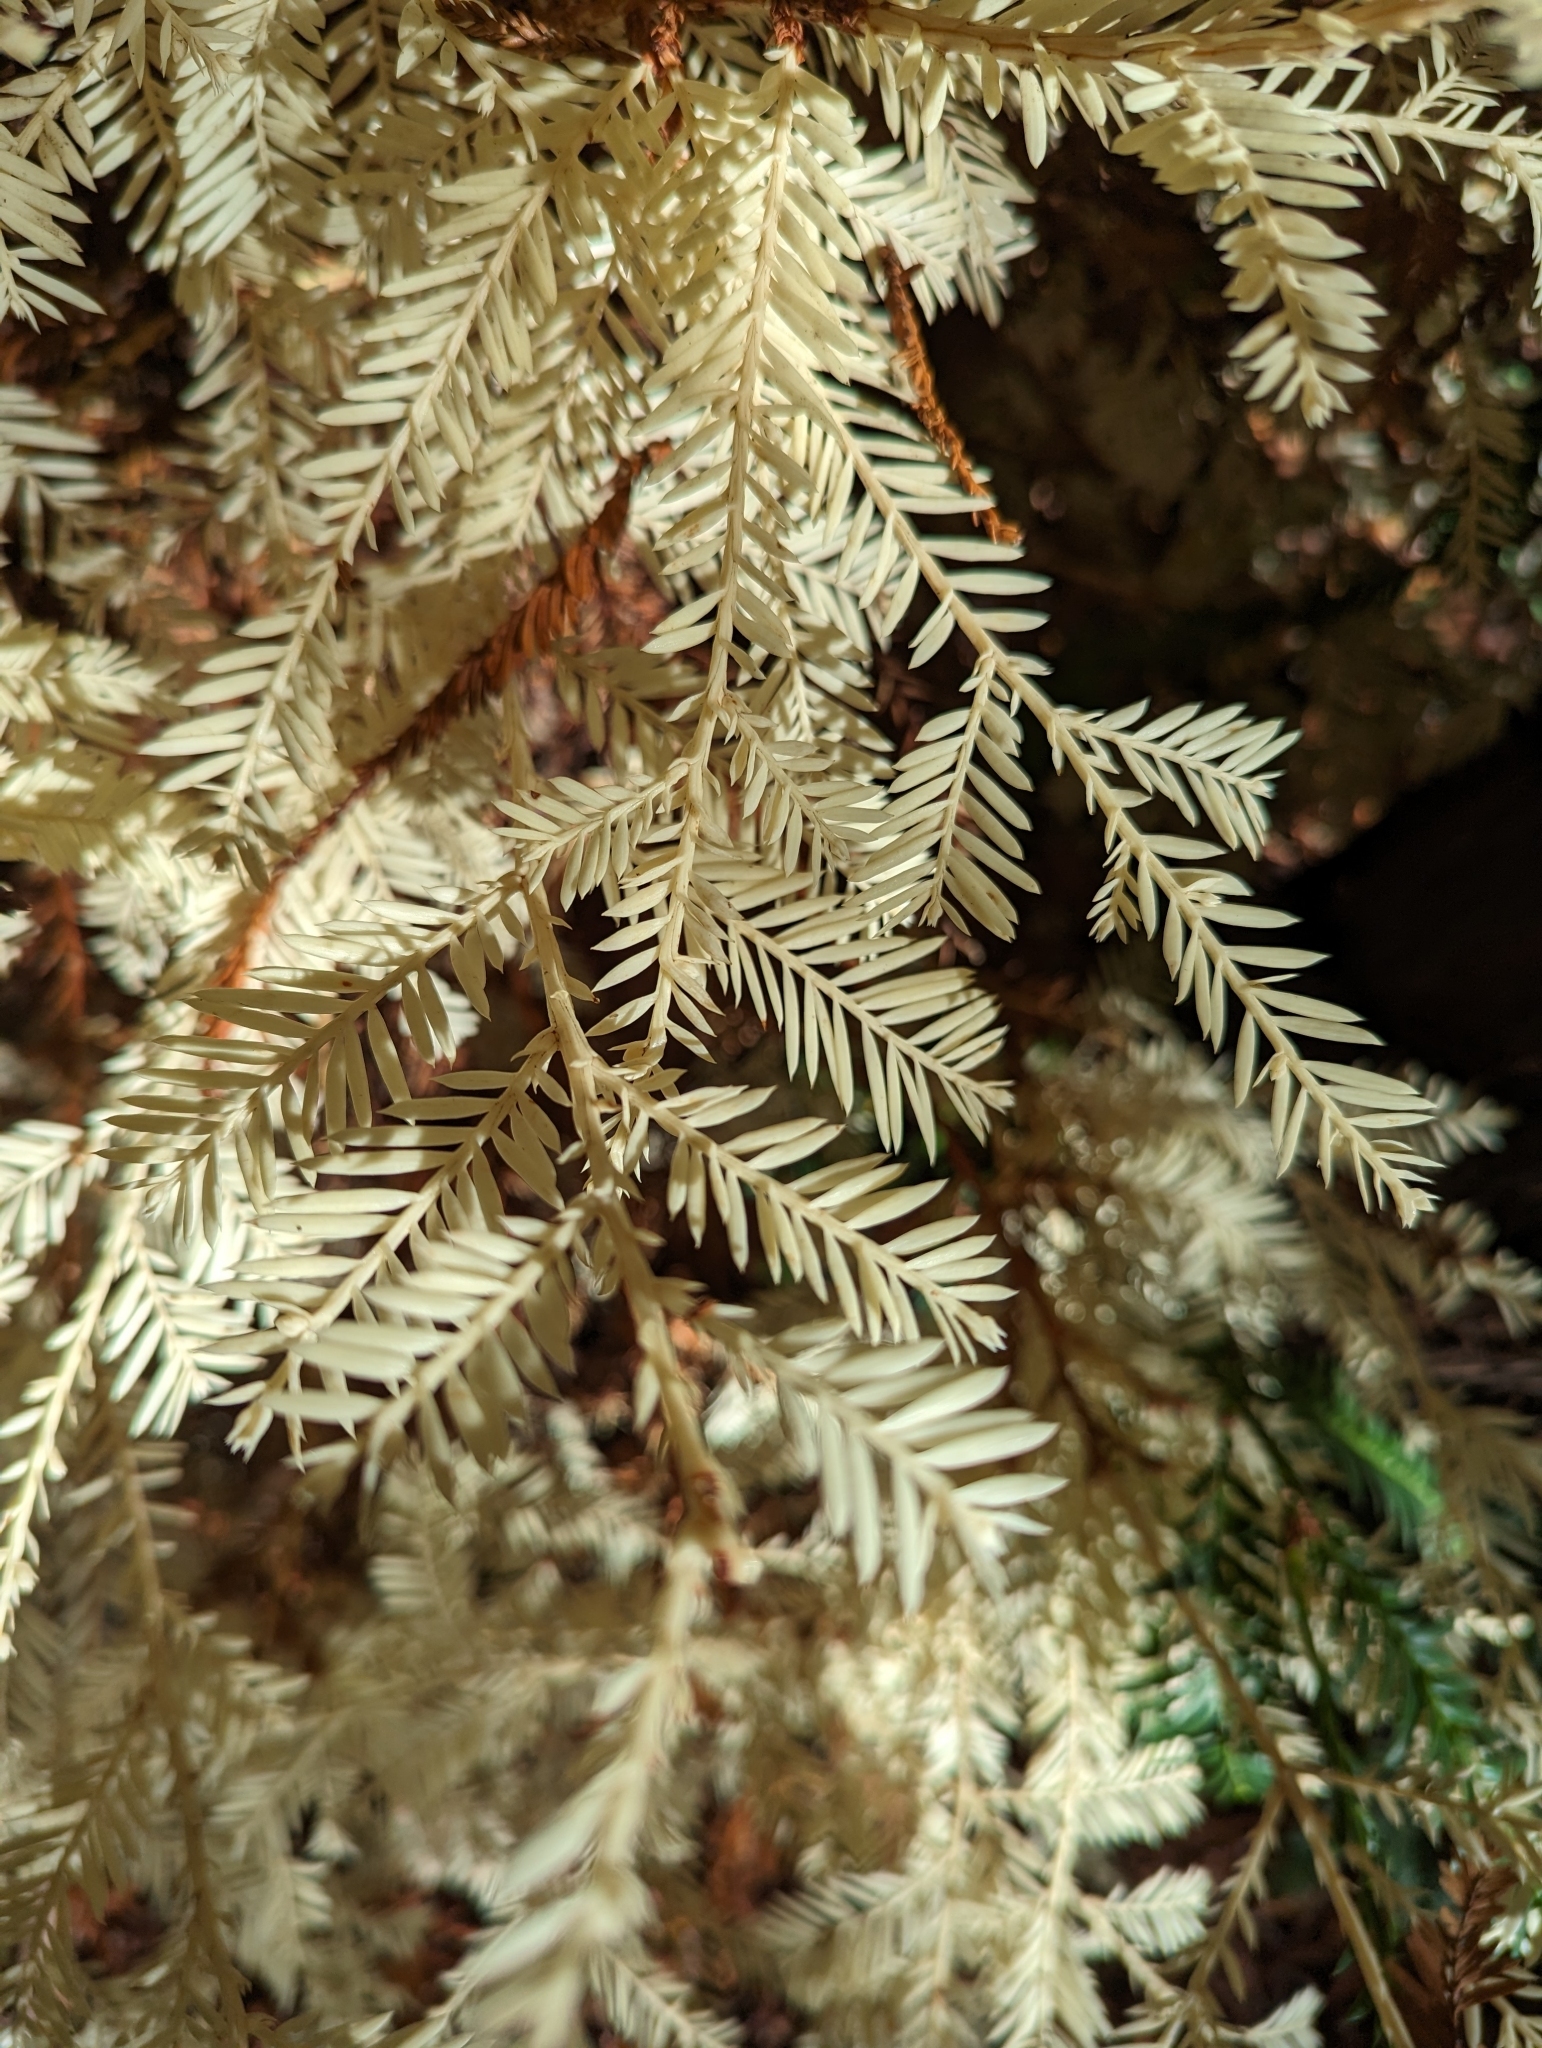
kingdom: Plantae
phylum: Tracheophyta
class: Pinopsida
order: Pinales
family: Cupressaceae
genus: Sequoia
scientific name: Sequoia sempervirens
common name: Coast redwood
